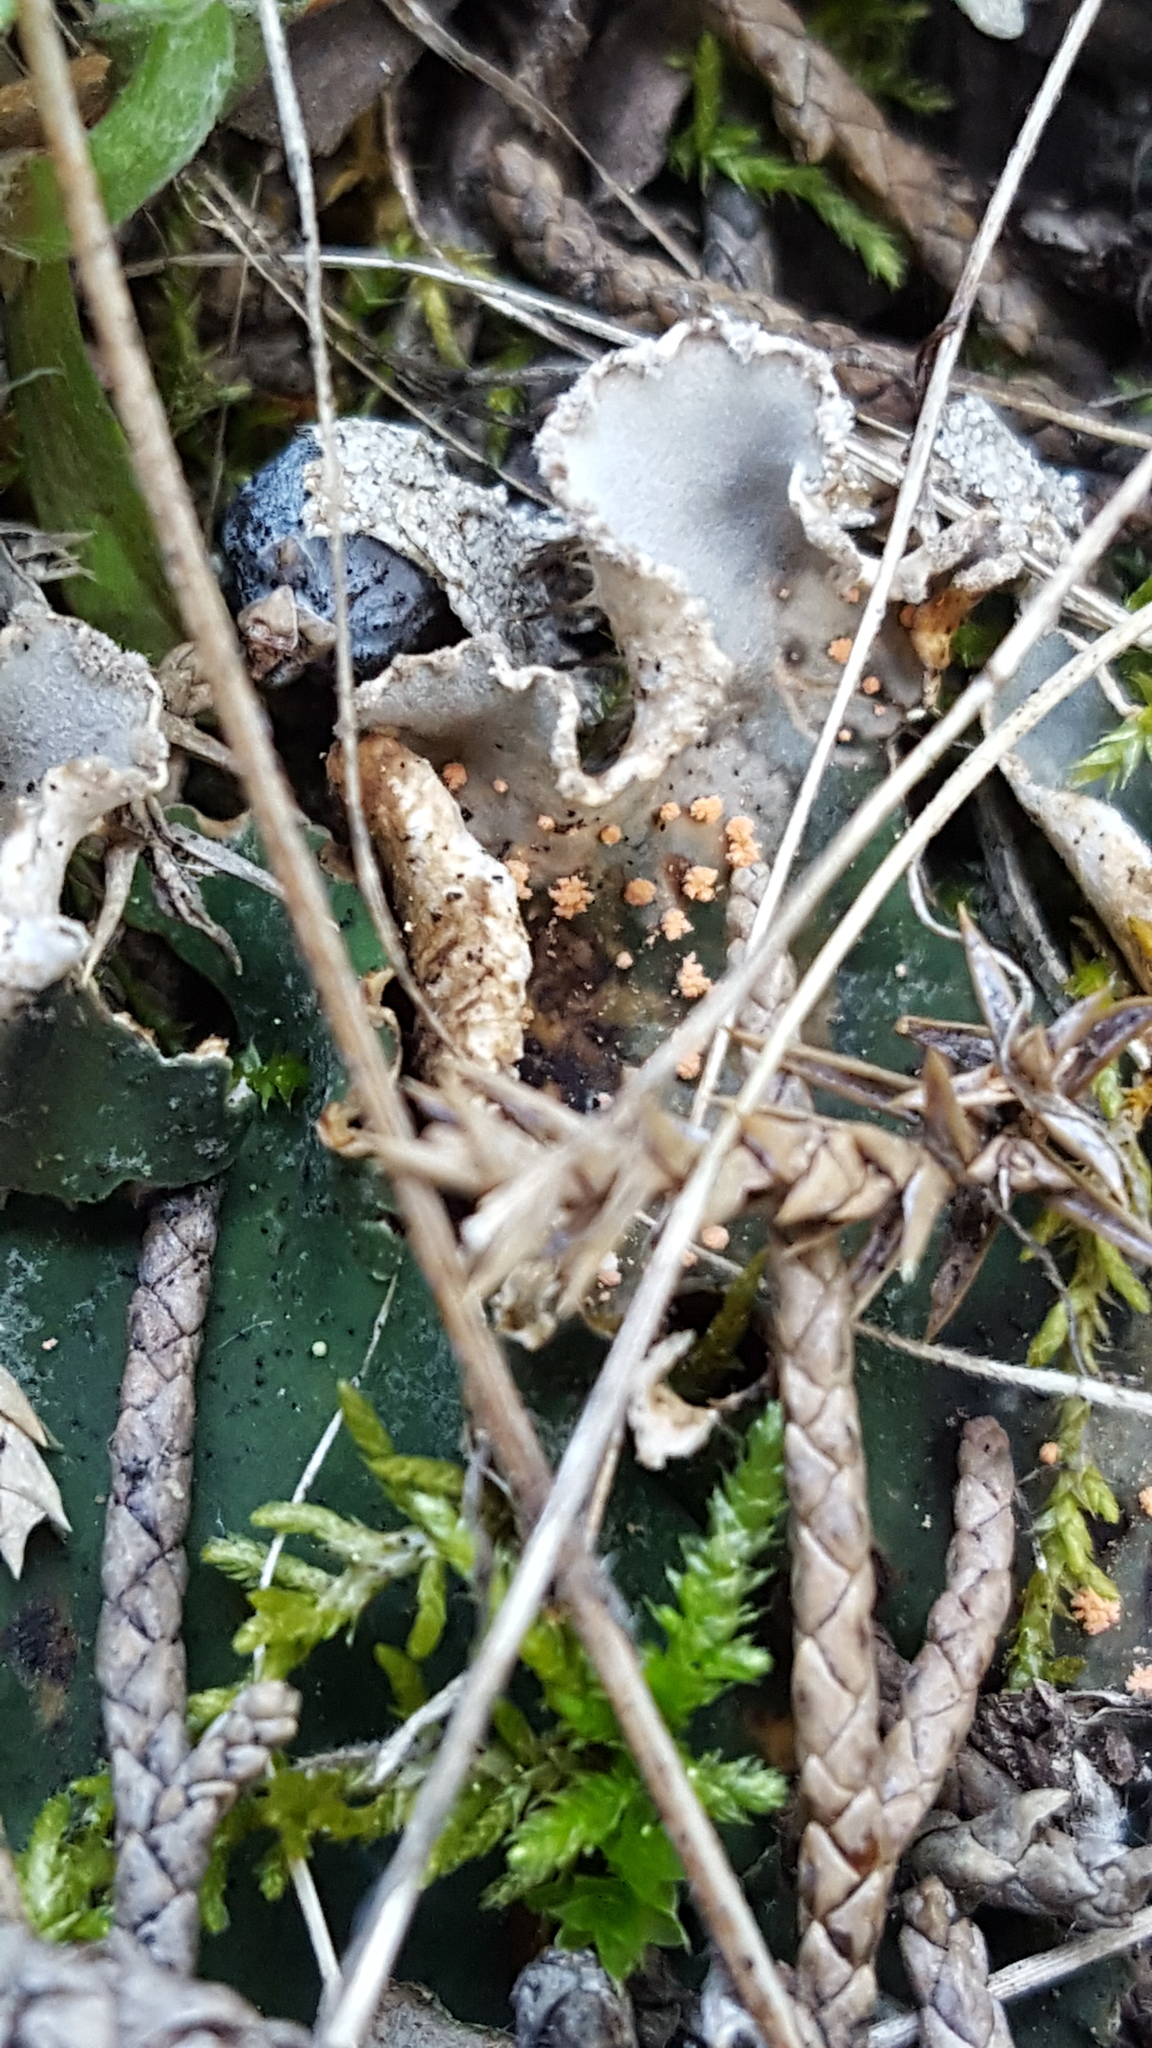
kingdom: Fungi
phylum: Ascomycota
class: Sordariomycetes
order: Hypocreales
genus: Illosporium
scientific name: Illosporium roseum
